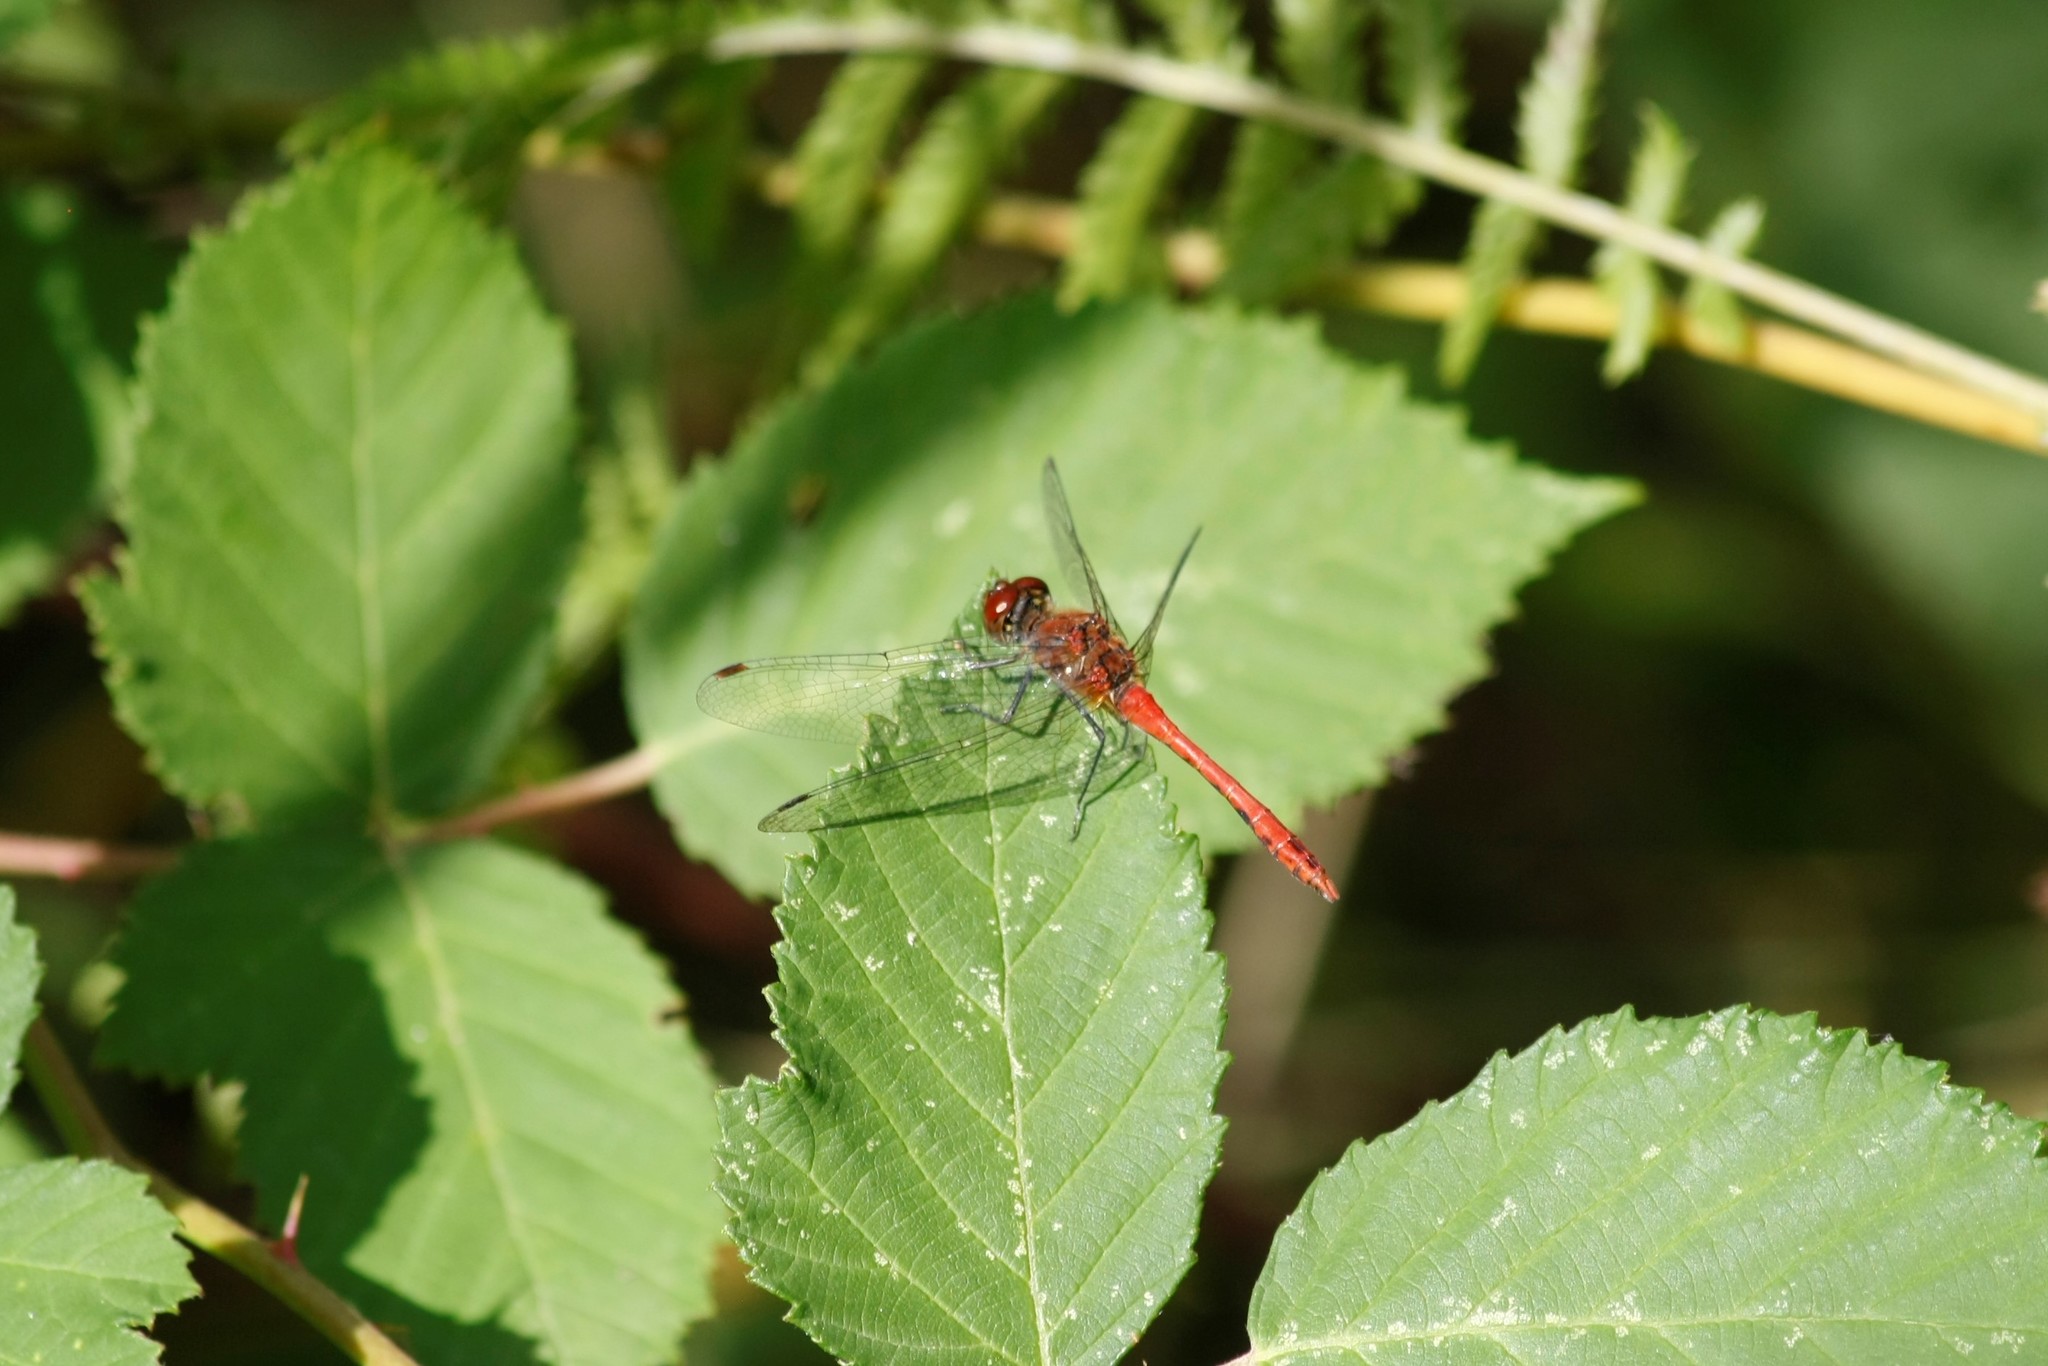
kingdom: Animalia
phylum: Arthropoda
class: Insecta
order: Odonata
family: Libellulidae
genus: Sympetrum
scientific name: Sympetrum sanguineum
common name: Ruddy darter
